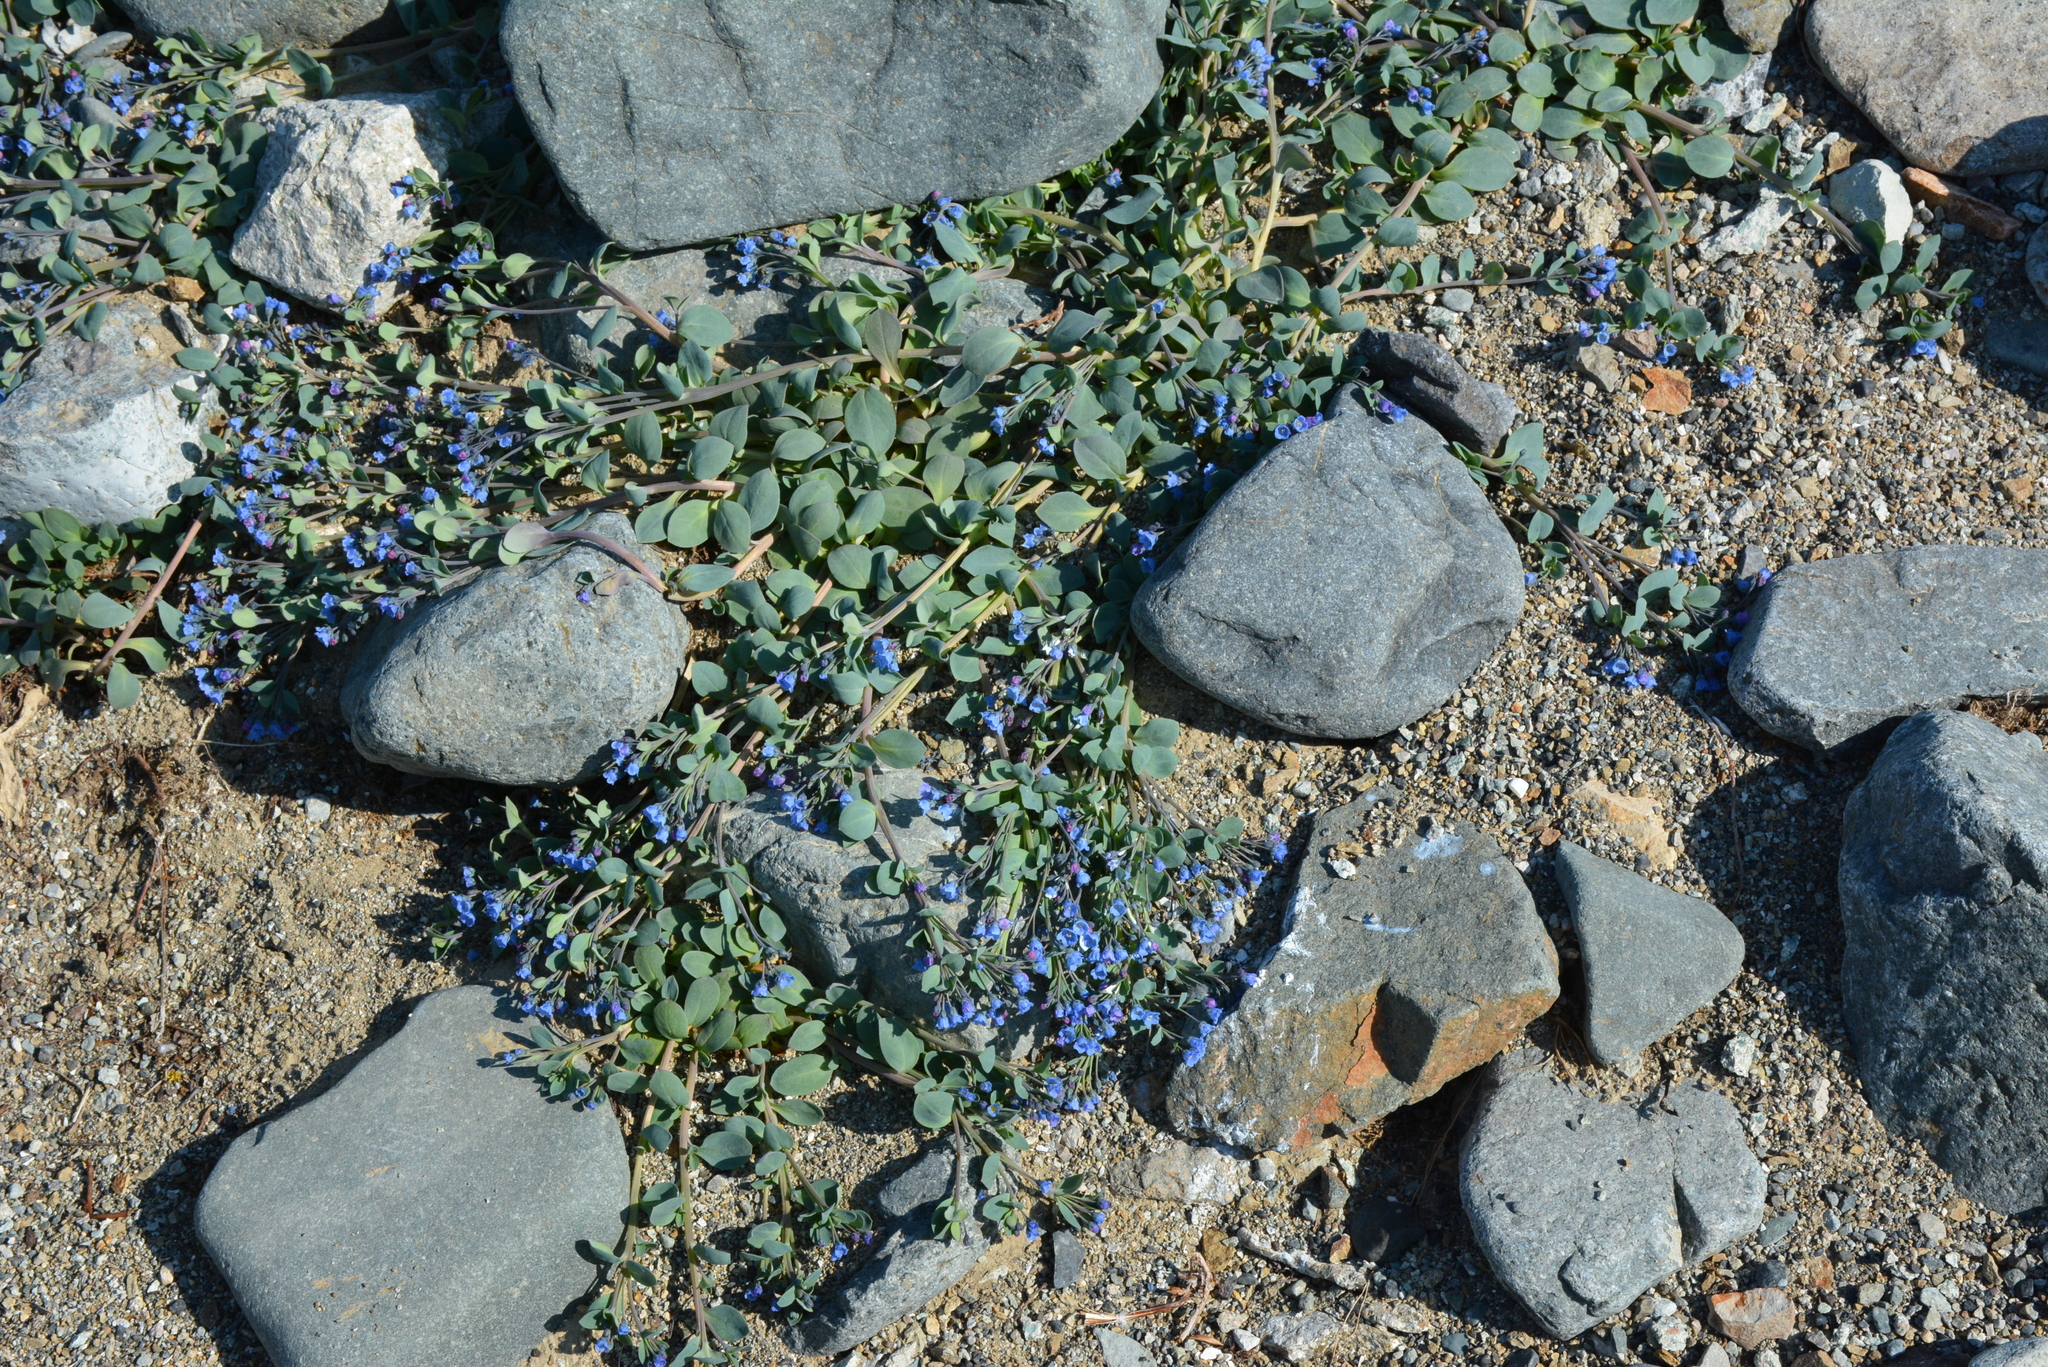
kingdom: Plantae
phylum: Tracheophyta
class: Magnoliopsida
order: Boraginales
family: Boraginaceae
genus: Mertensia
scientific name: Mertensia maritima
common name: Oysterplant
